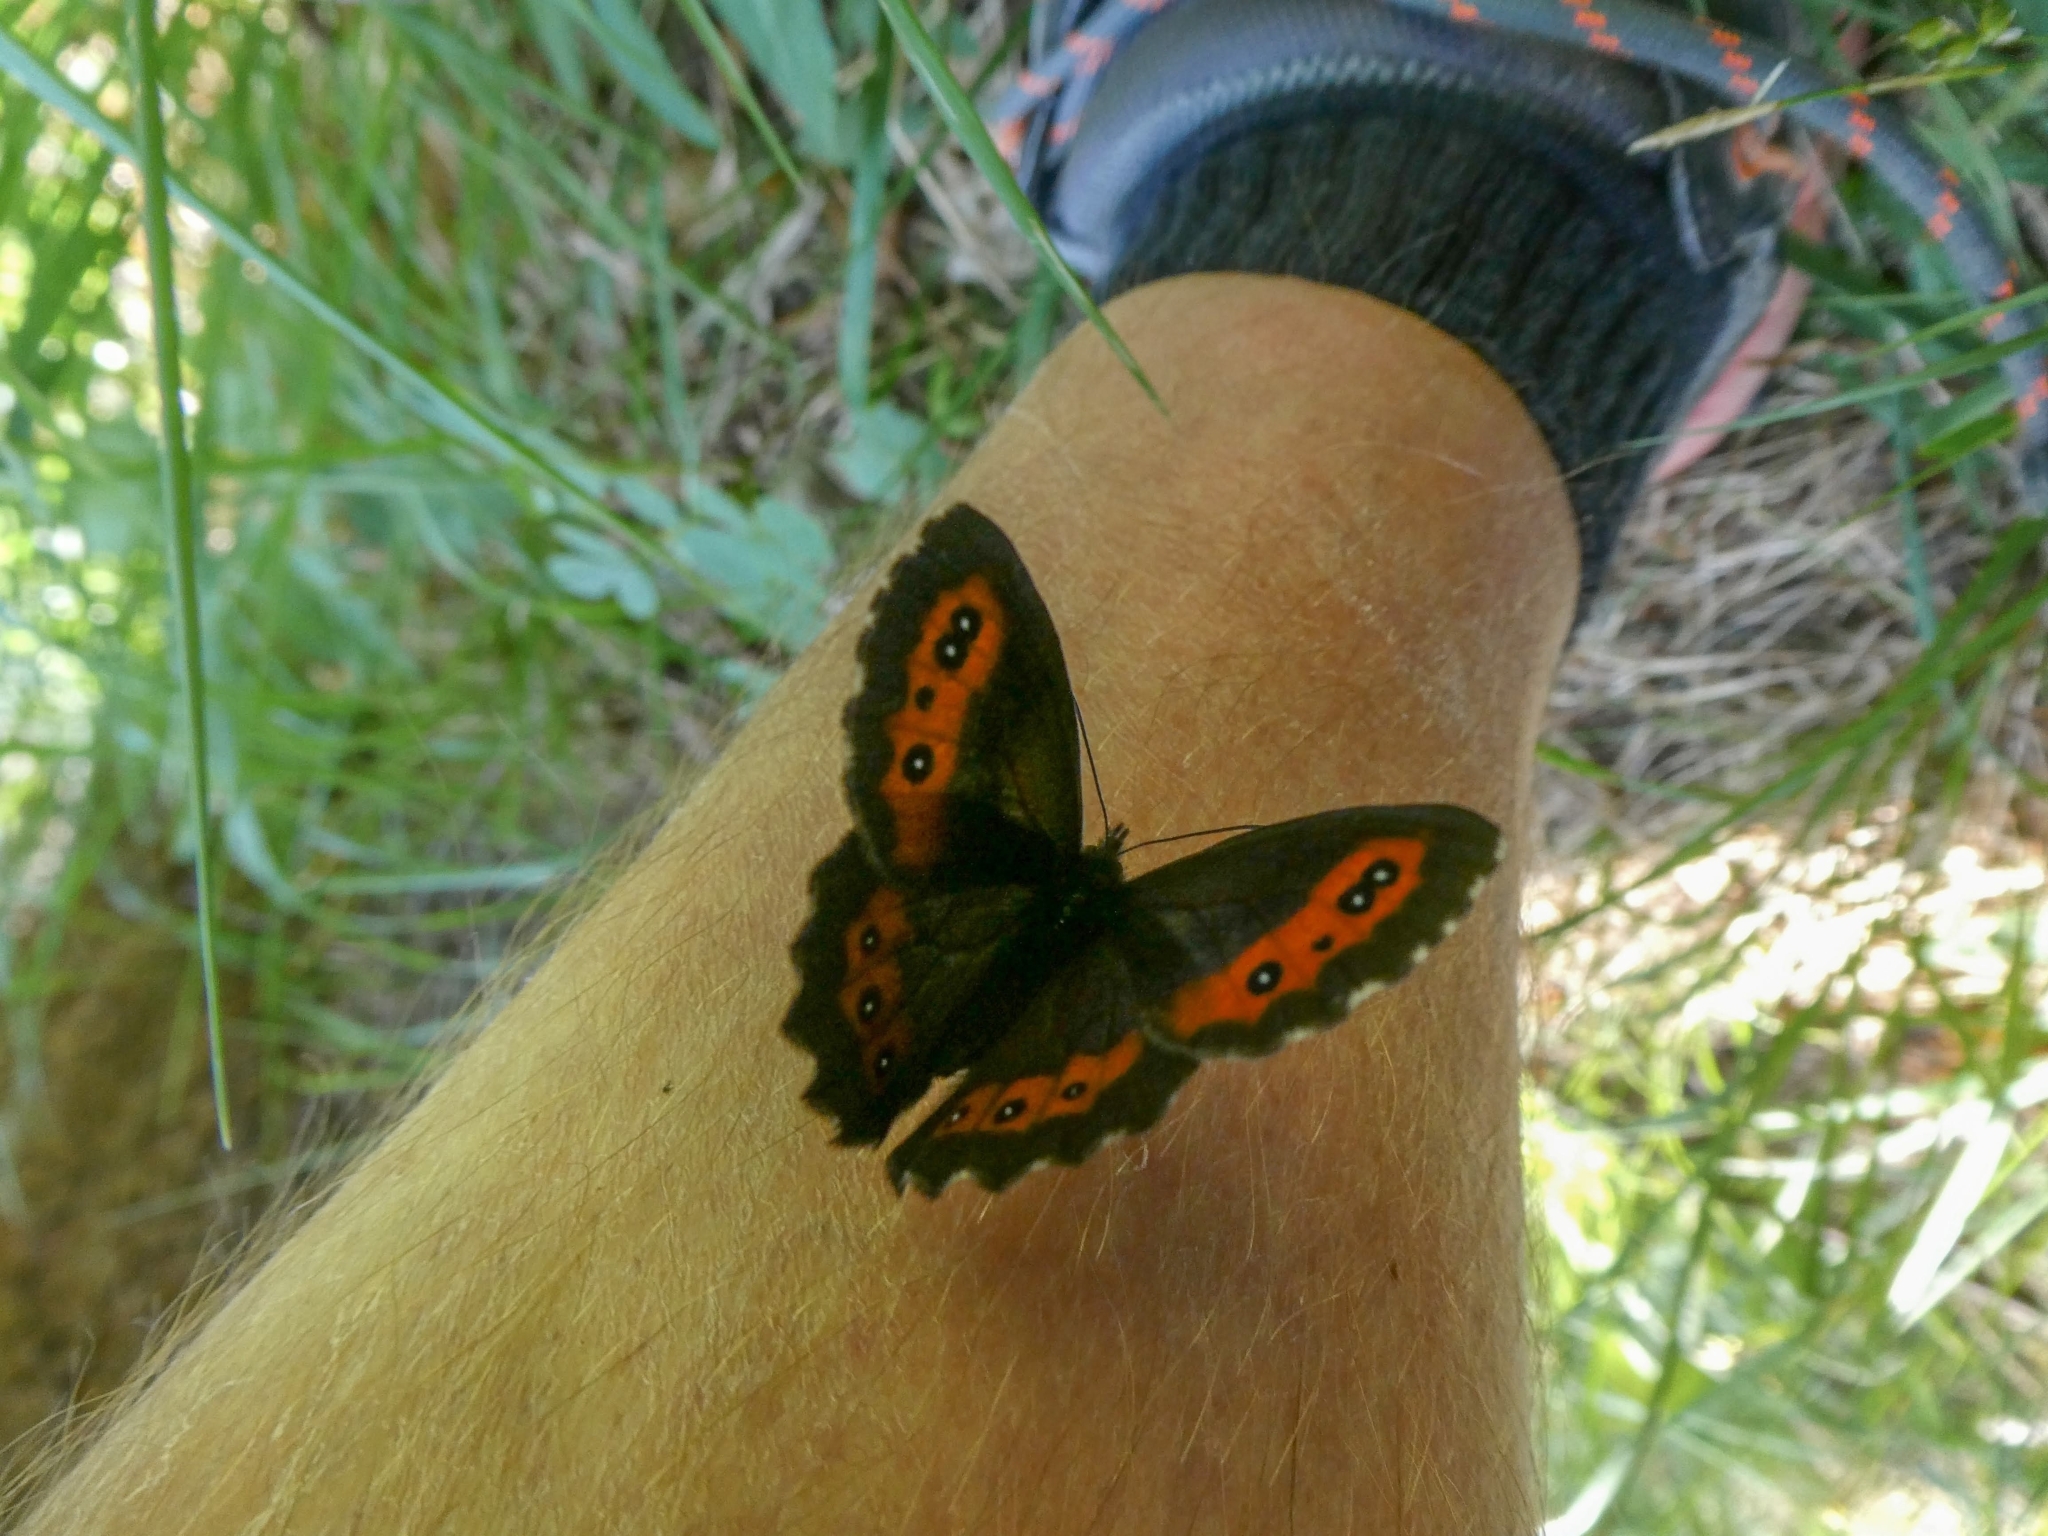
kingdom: Animalia
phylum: Arthropoda
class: Insecta
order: Lepidoptera
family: Nymphalidae
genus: Erebia
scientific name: Erebia ligea
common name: Arran brown
